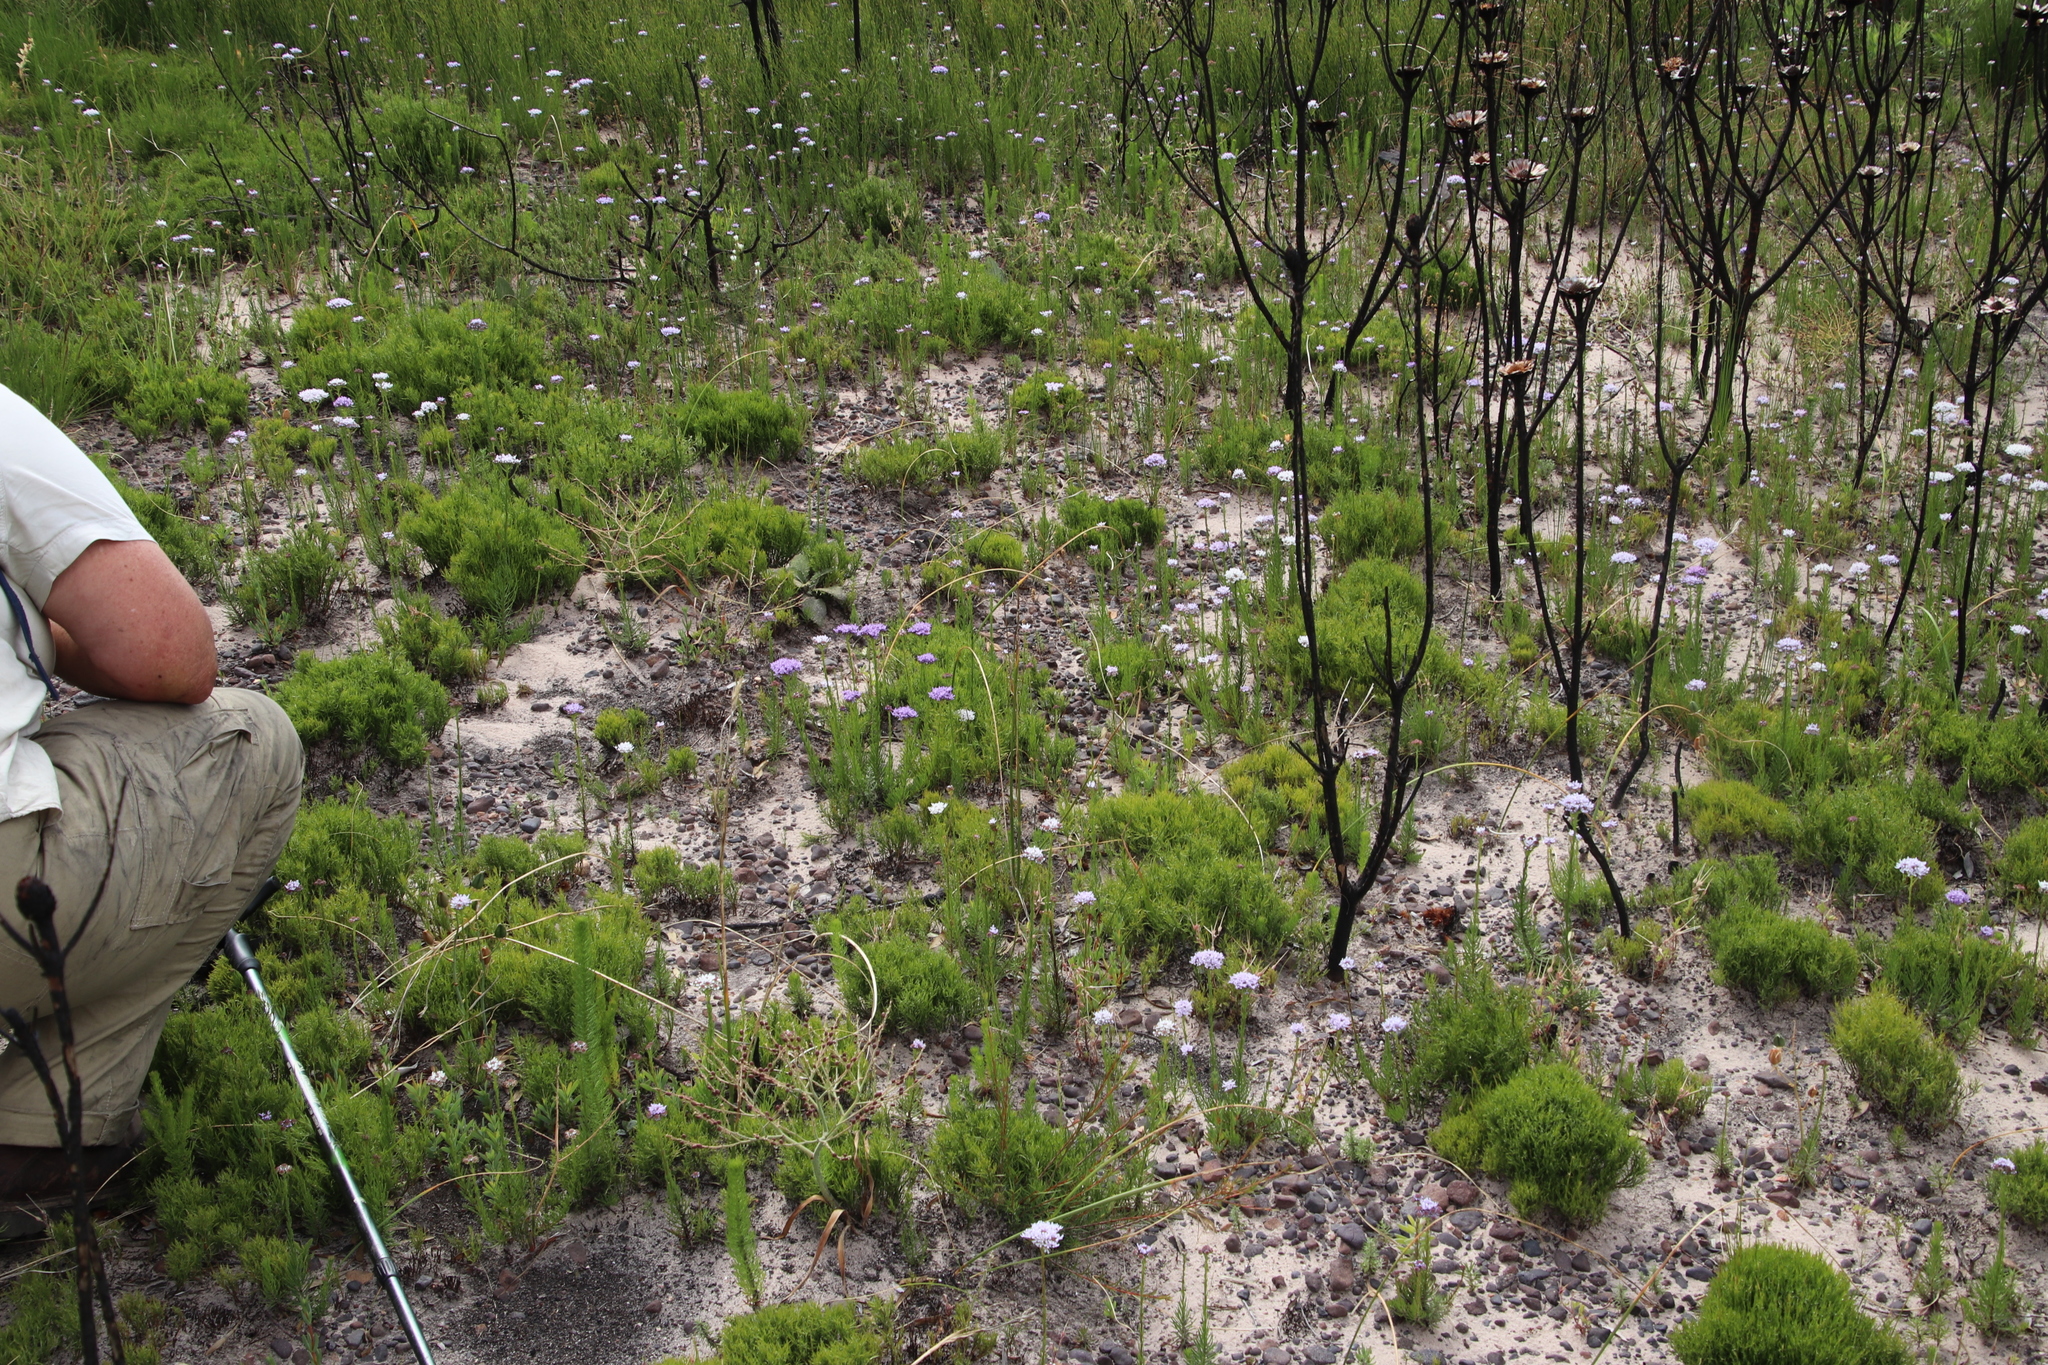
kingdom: Plantae
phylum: Tracheophyta
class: Magnoliopsida
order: Lamiales
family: Scrophulariaceae
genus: Pseudoselago
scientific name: Pseudoselago spuria
